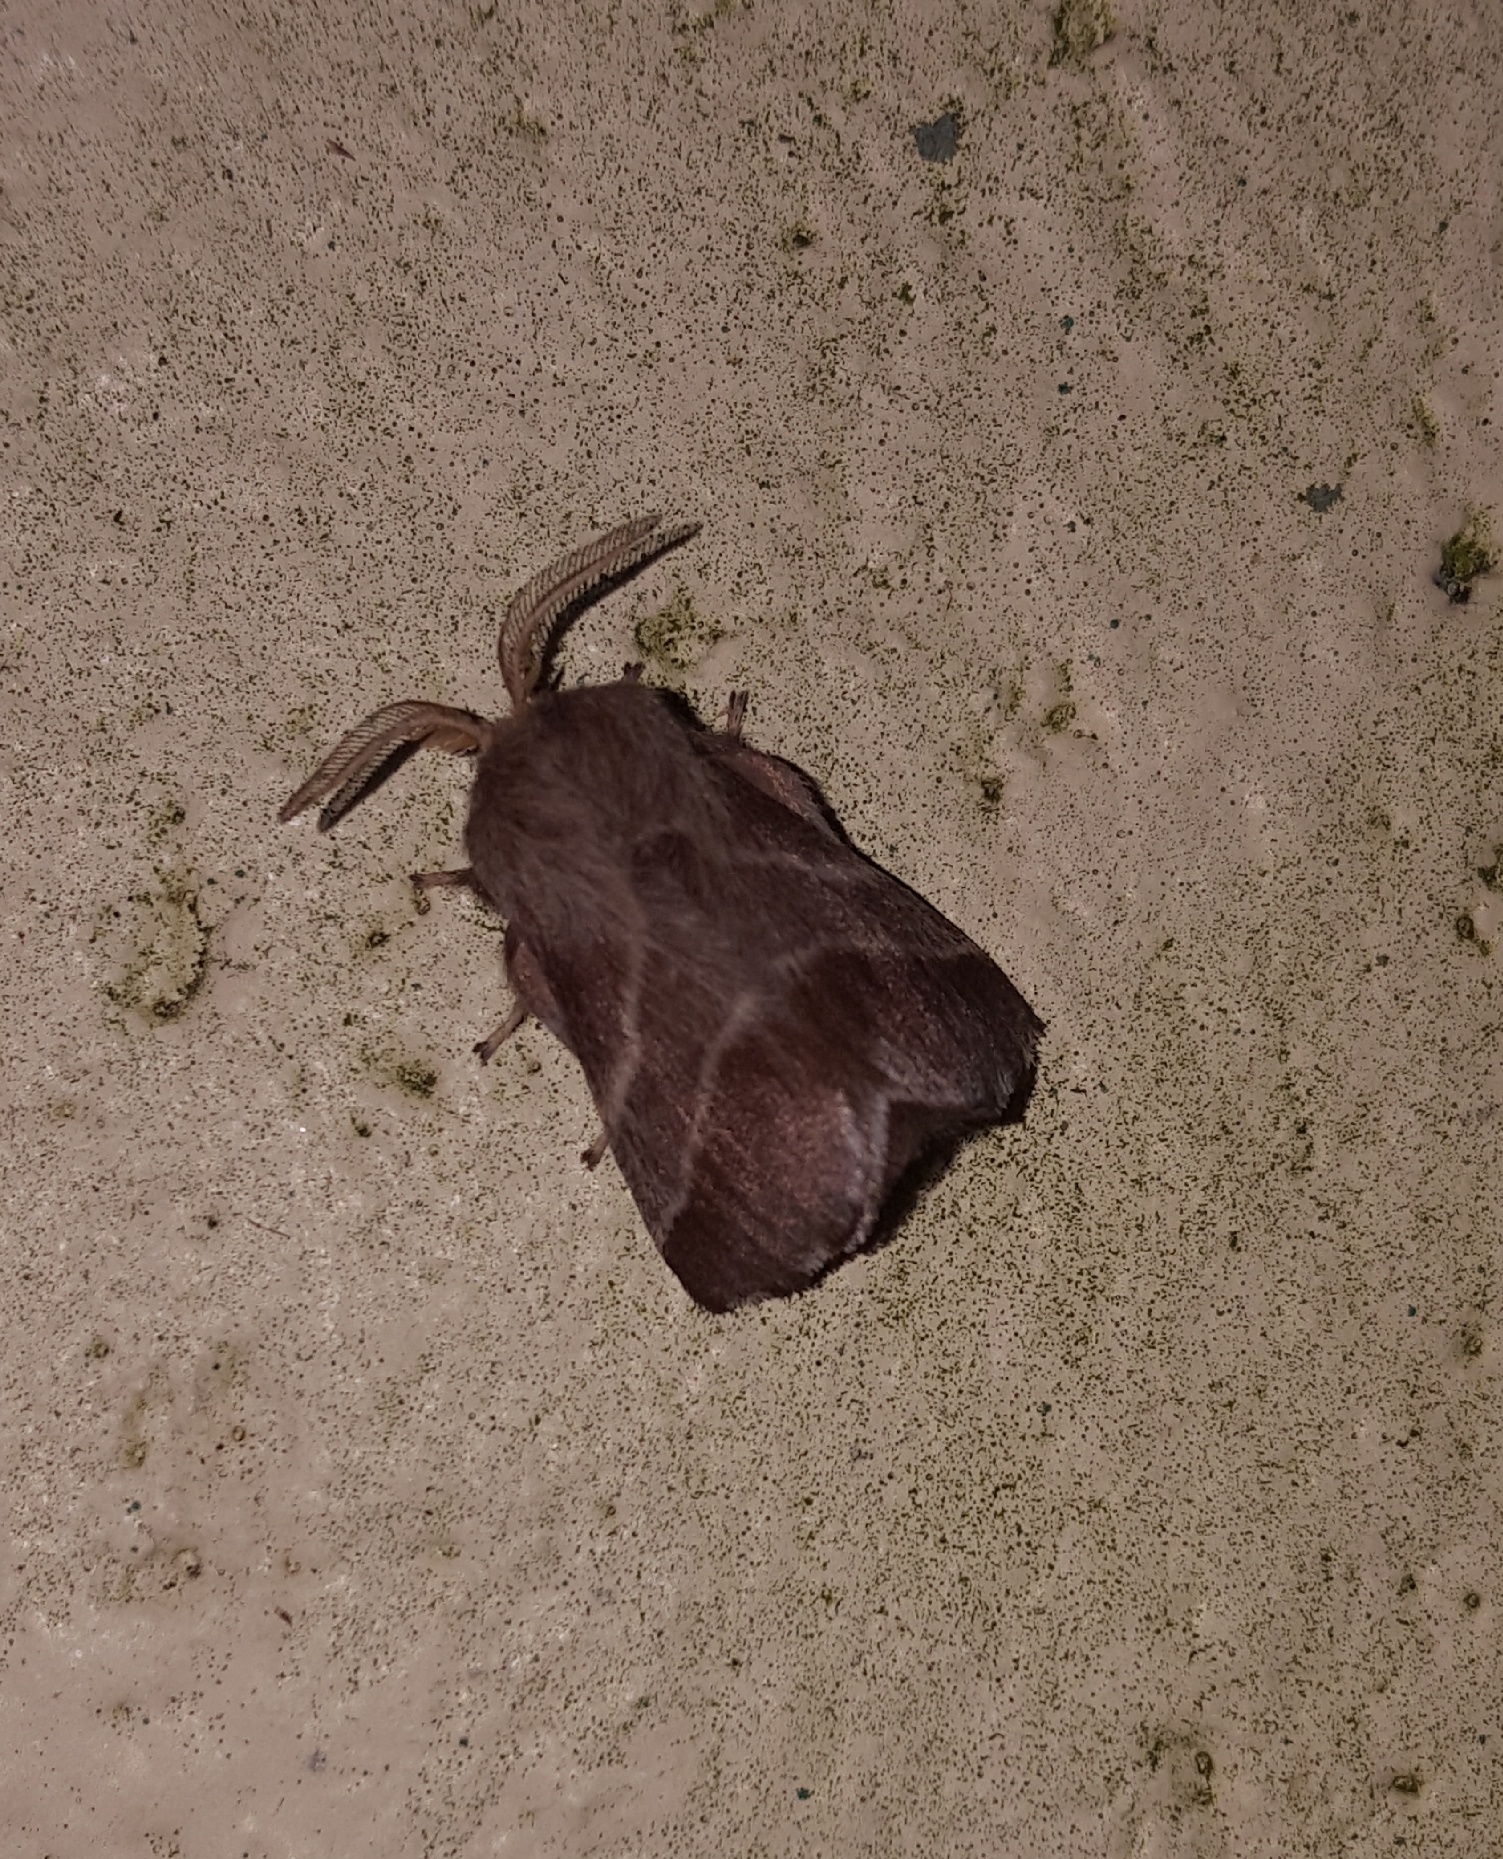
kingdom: Animalia
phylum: Arthropoda
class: Insecta
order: Lepidoptera
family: Lasiocampidae
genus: Malacosoma
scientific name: Malacosoma americana
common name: Eastern tent caterpillar moth
